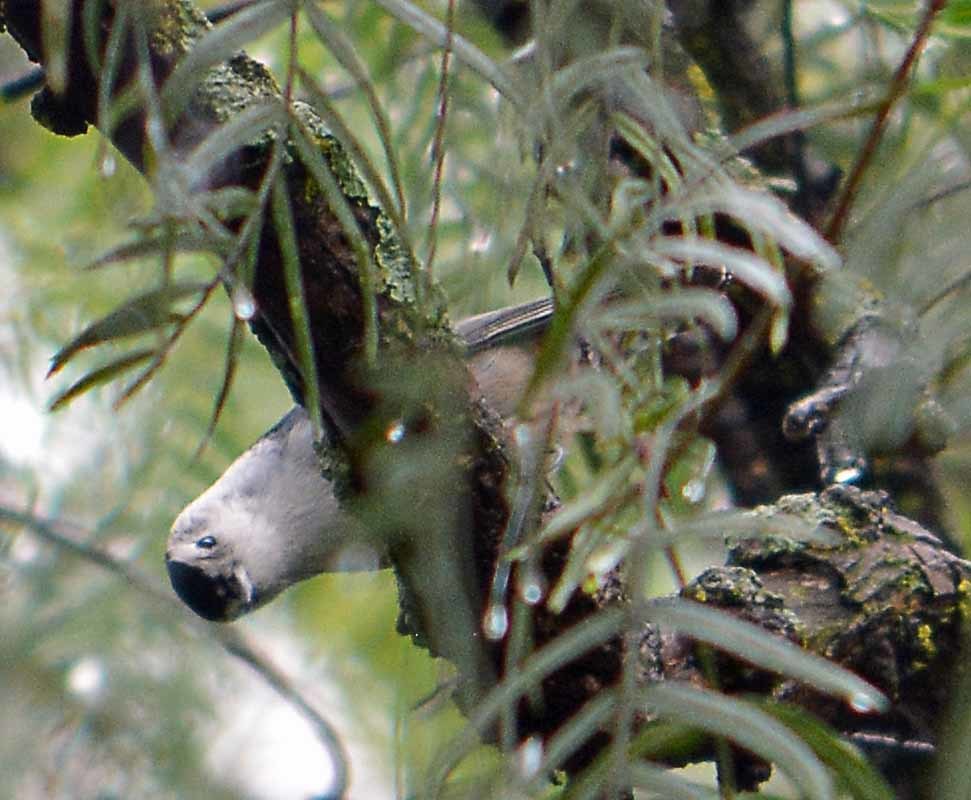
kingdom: Animalia
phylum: Chordata
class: Aves
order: Passeriformes
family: Sittidae
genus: Sitta
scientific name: Sitta carolinensis
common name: White-breasted nuthatch
